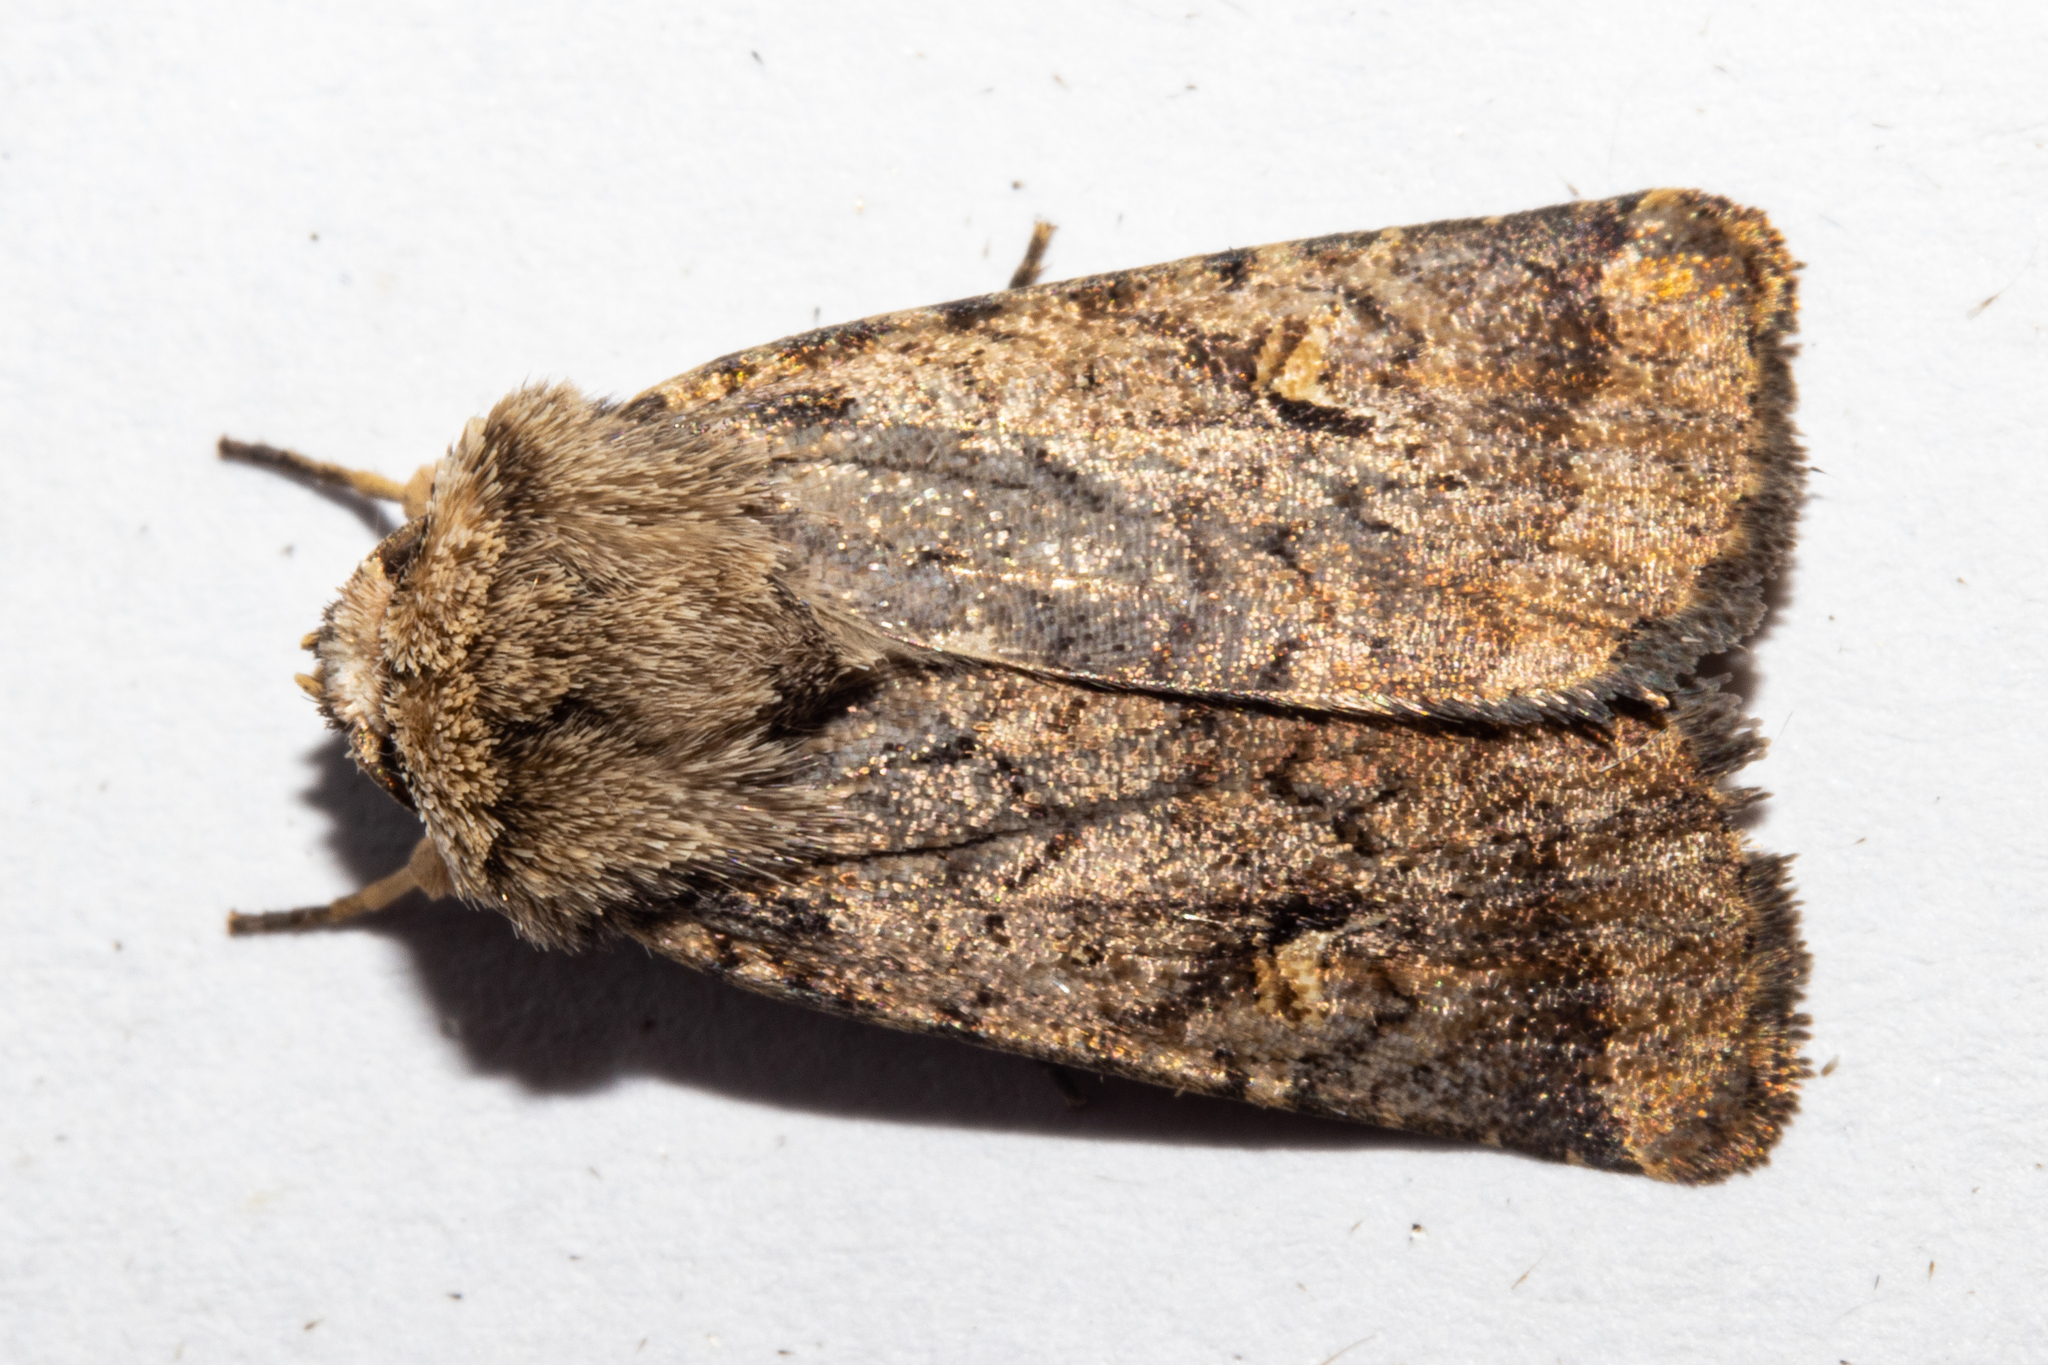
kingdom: Animalia
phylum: Arthropoda
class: Insecta
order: Lepidoptera
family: Noctuidae
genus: Proteuxoa
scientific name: Proteuxoa tetronycha
